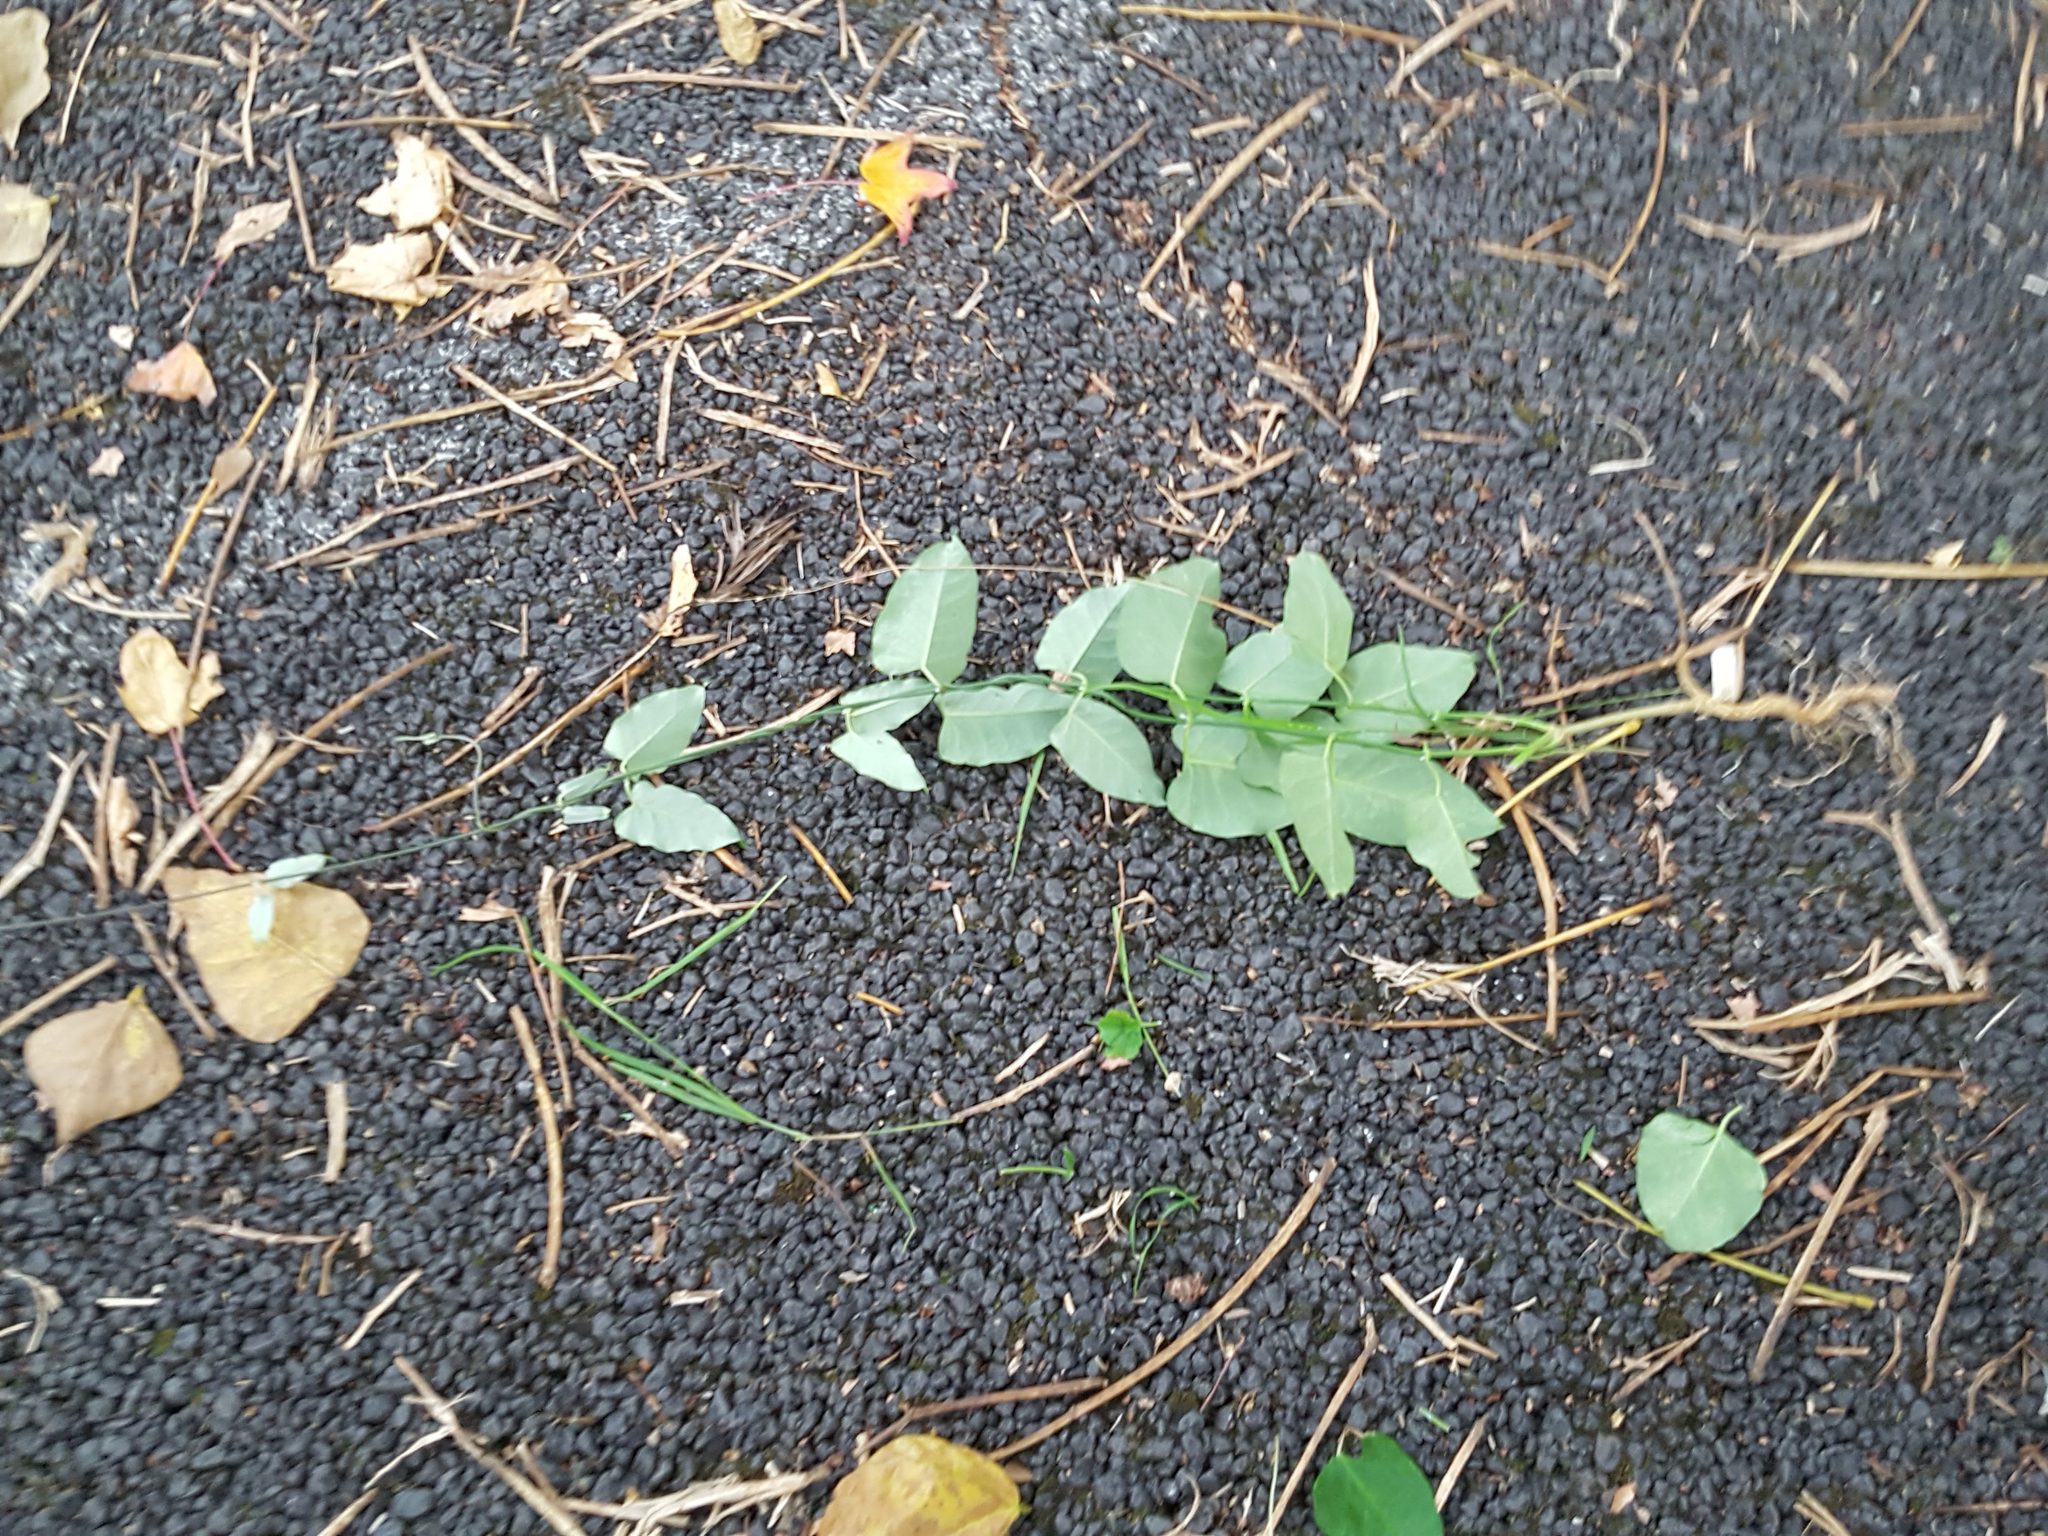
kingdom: Plantae
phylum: Tracheophyta
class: Magnoliopsida
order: Gentianales
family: Apocynaceae
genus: Araujia
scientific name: Araujia sericifera
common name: White bladderflower
